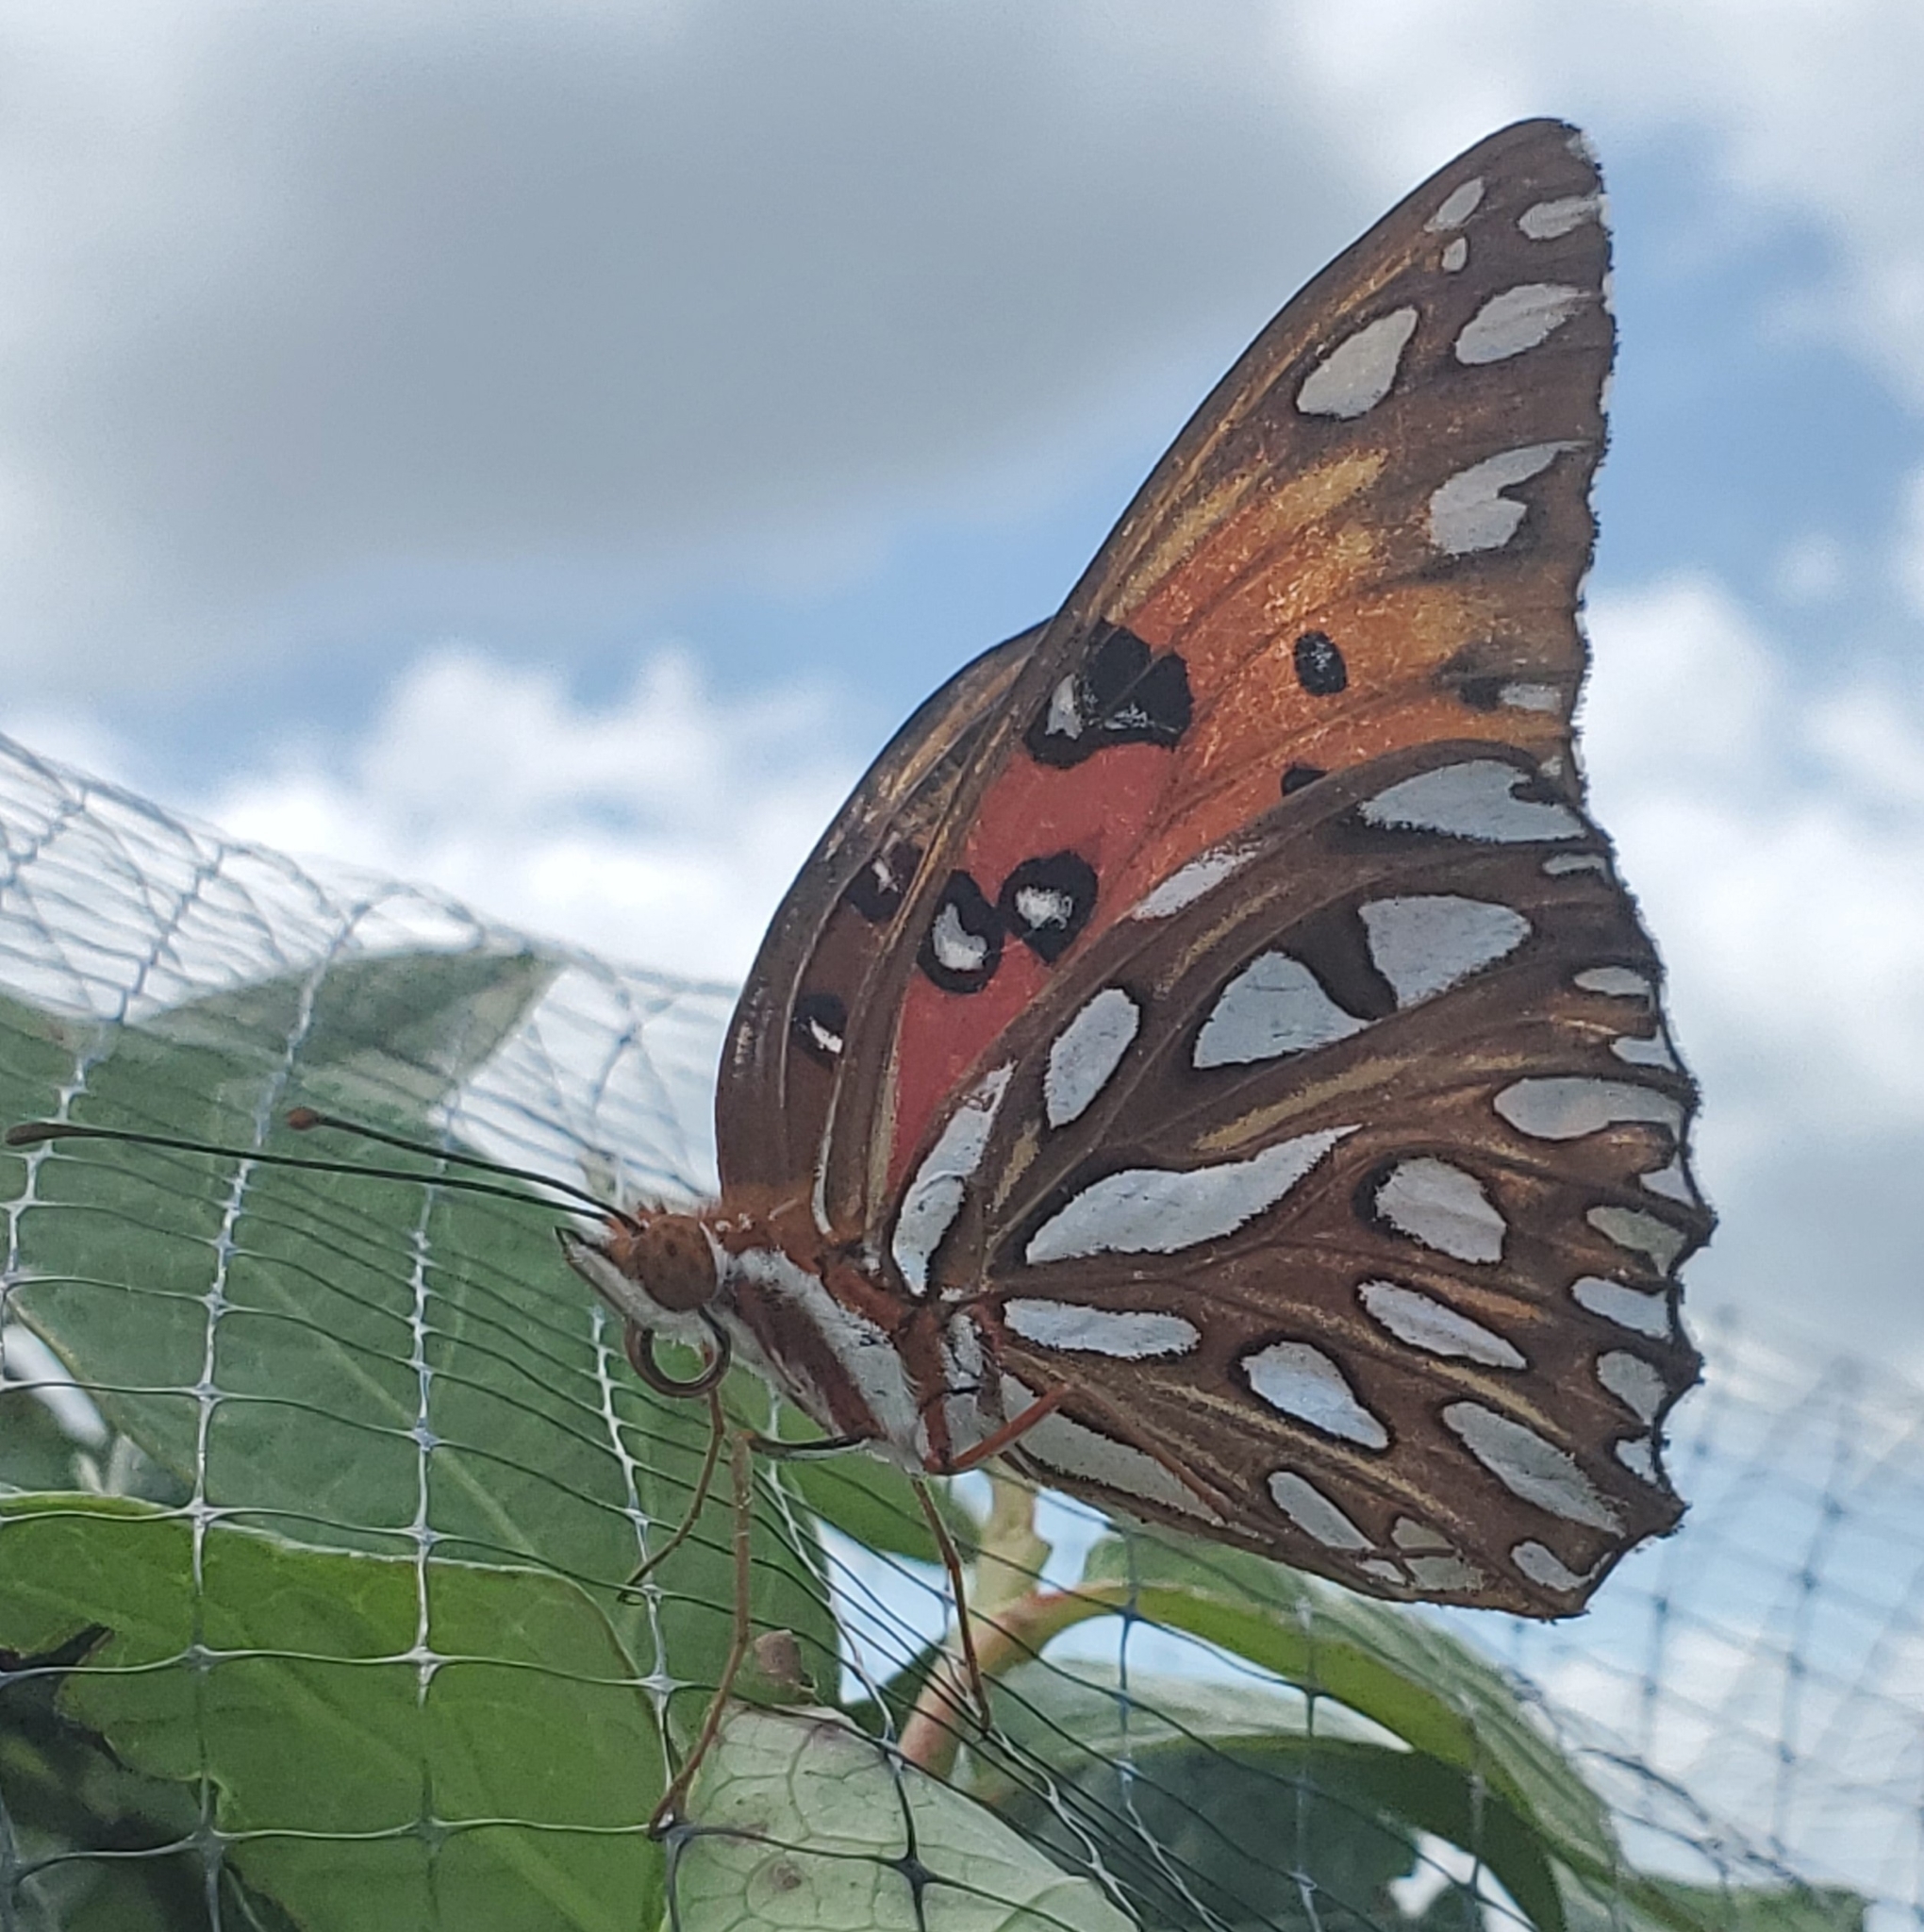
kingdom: Animalia
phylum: Arthropoda
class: Insecta
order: Lepidoptera
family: Nymphalidae
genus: Dione
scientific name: Dione vanillae
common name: Gulf fritillary
